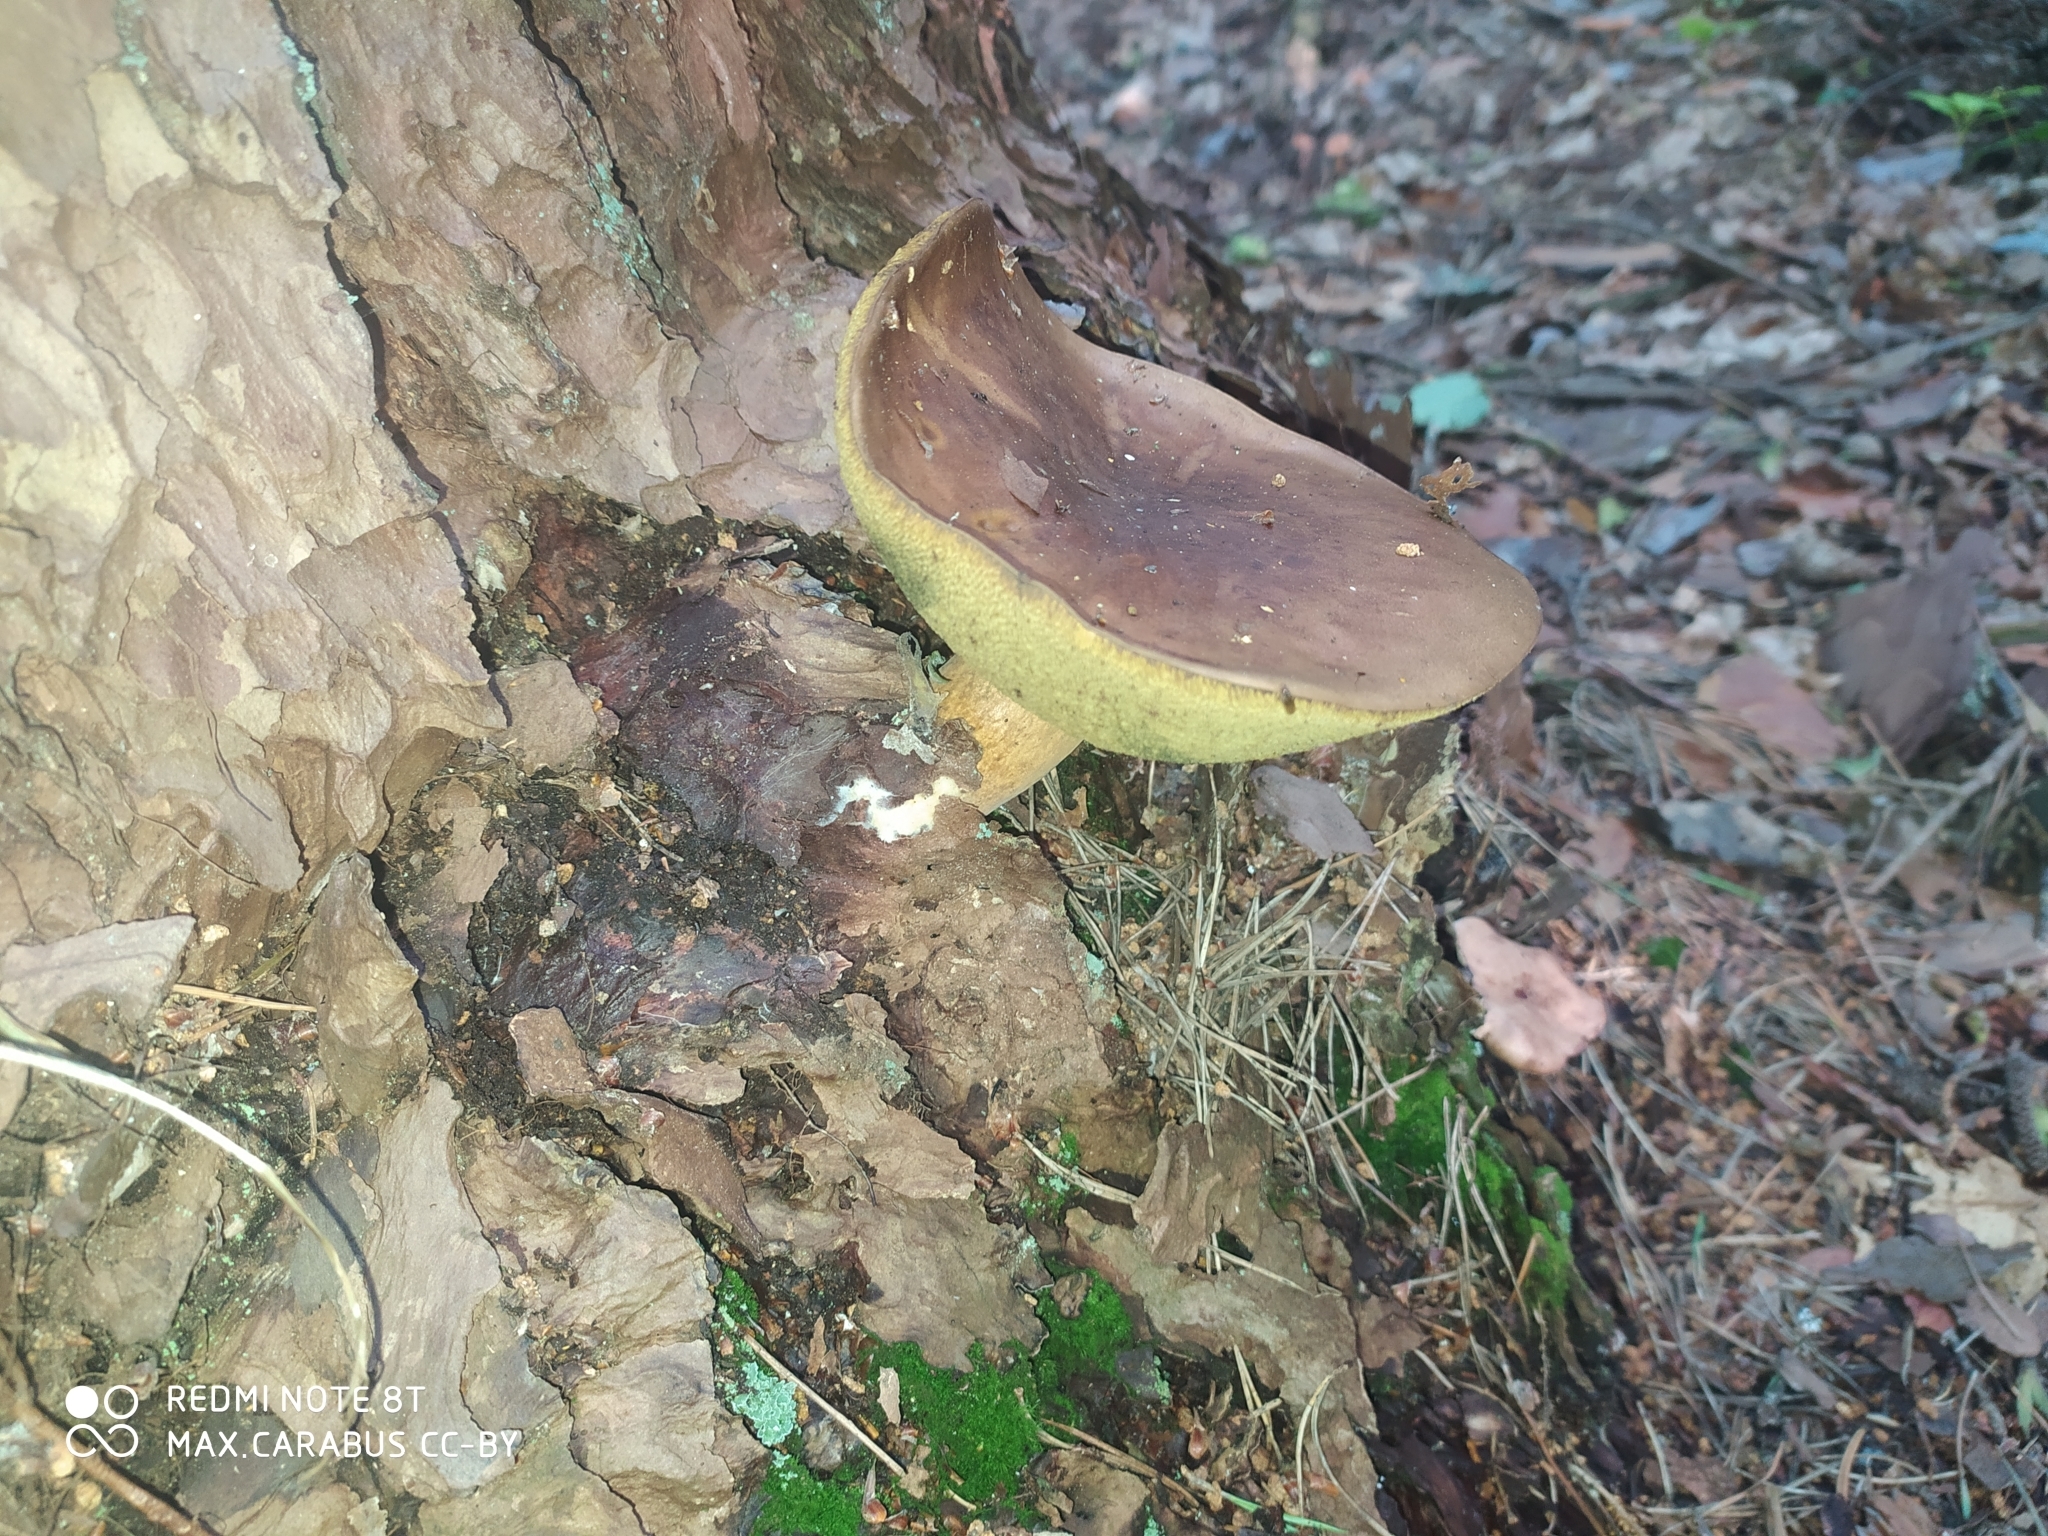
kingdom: Fungi
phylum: Basidiomycota
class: Agaricomycetes
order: Boletales
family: Boletaceae
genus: Imleria
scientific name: Imleria badia
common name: Bay bolete
